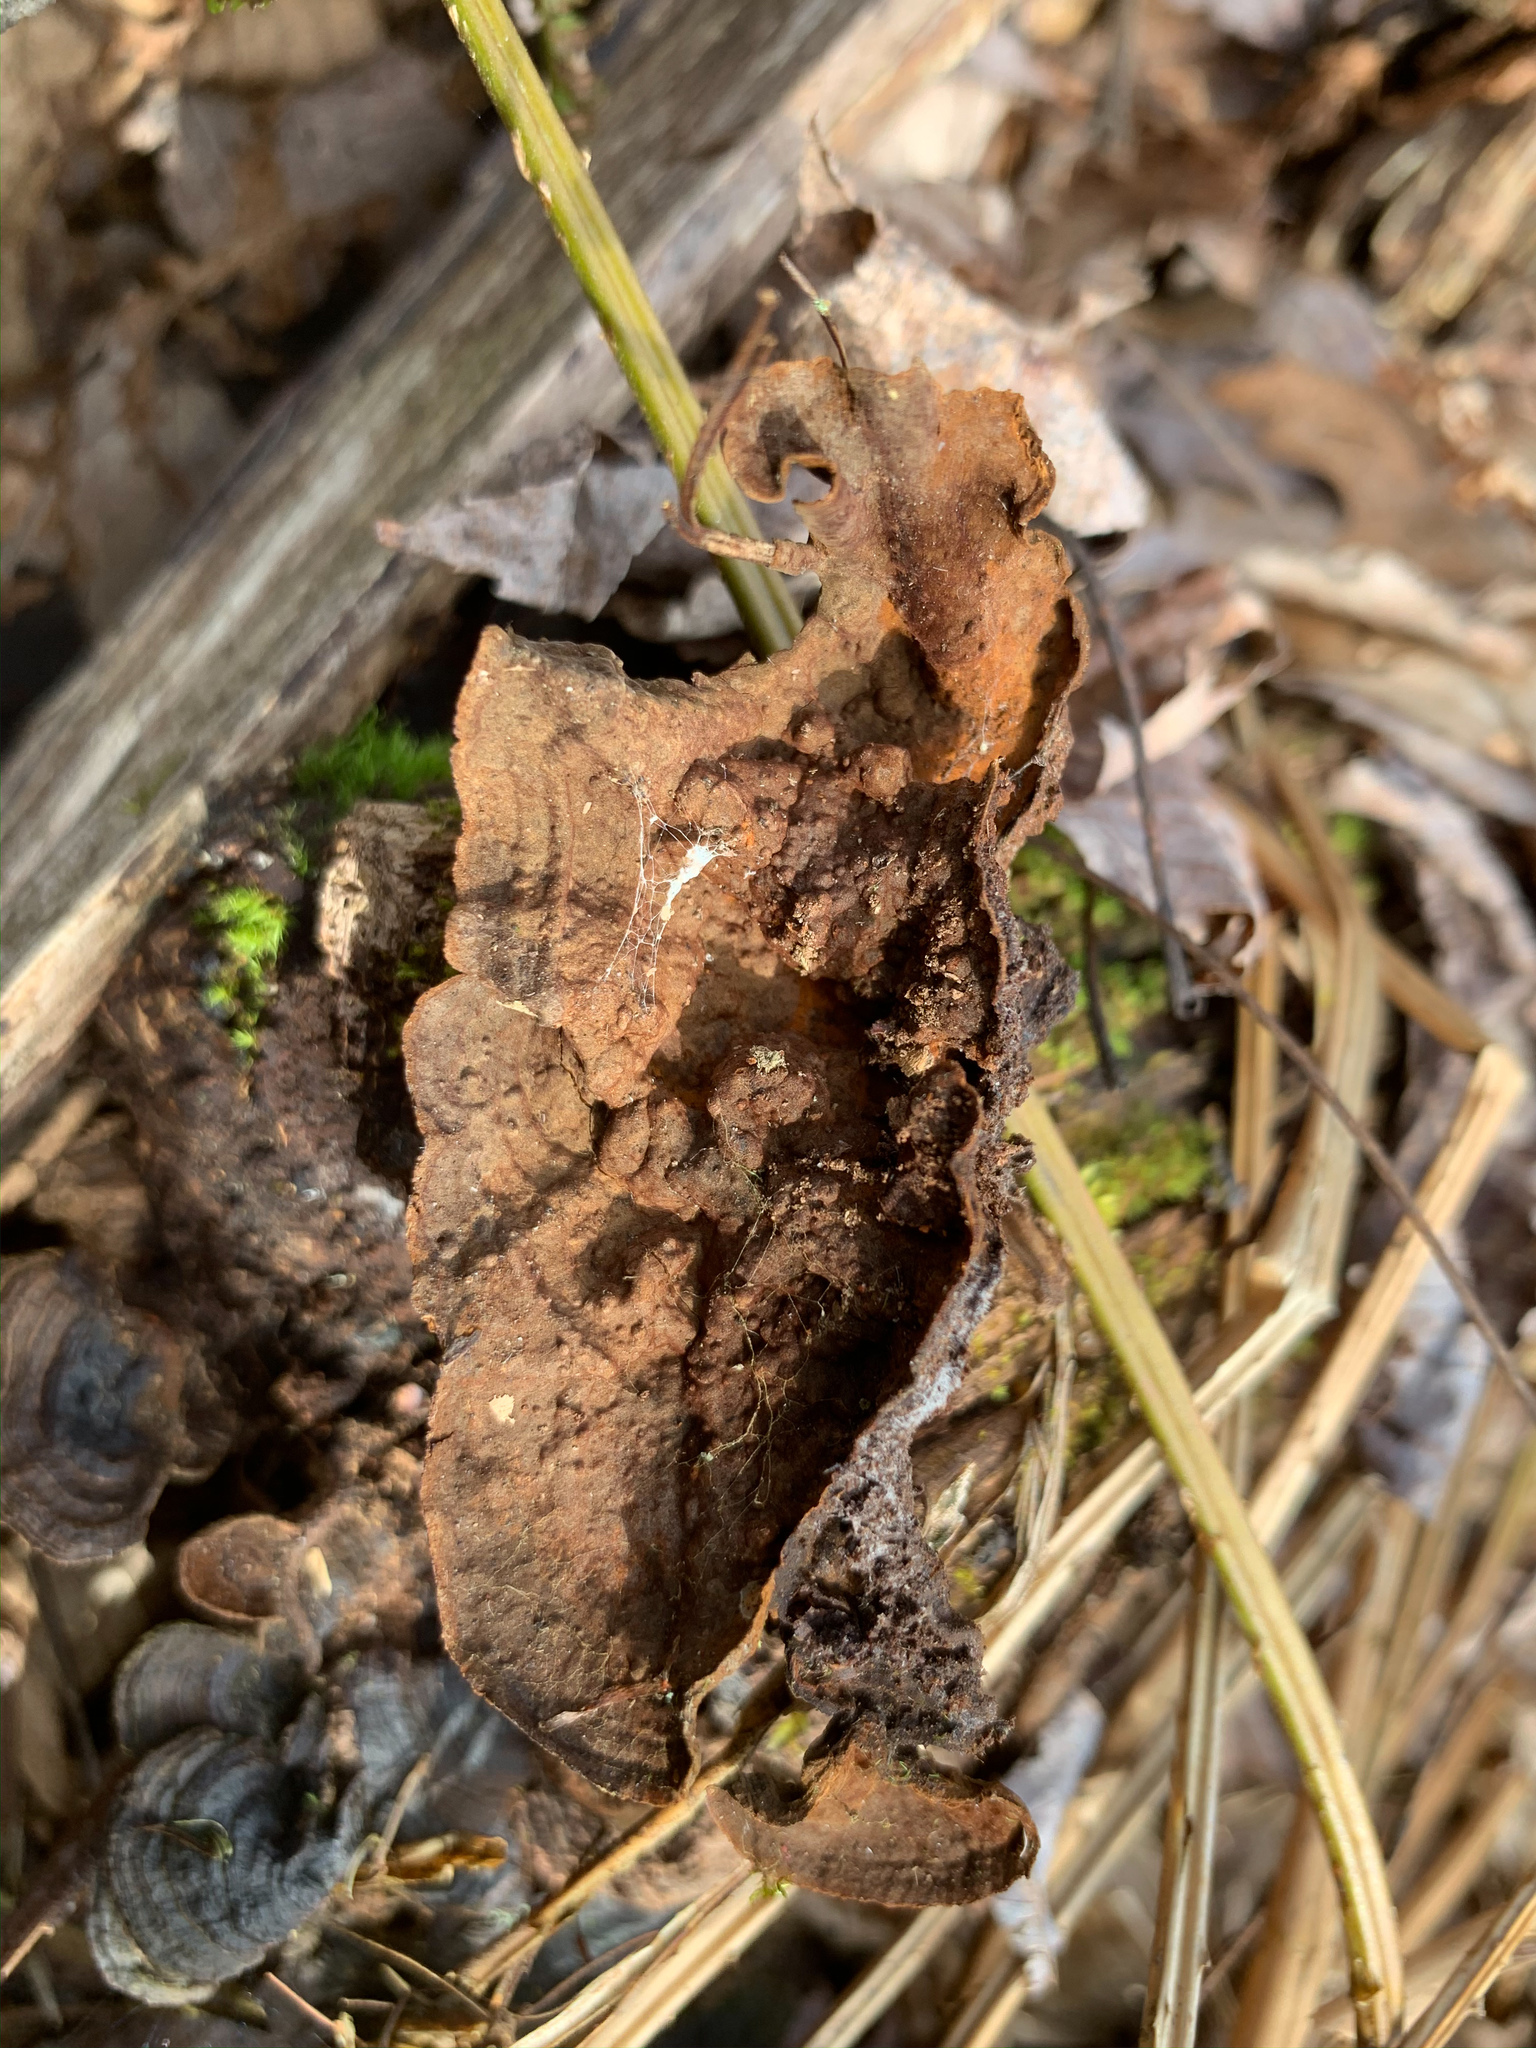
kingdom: Fungi
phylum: Basidiomycota
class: Agaricomycetes
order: Hymenochaetales
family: Hymenochaetaceae
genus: Hymenochaete
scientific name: Hymenochaete rubiginosa
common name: Oak curtain crust
